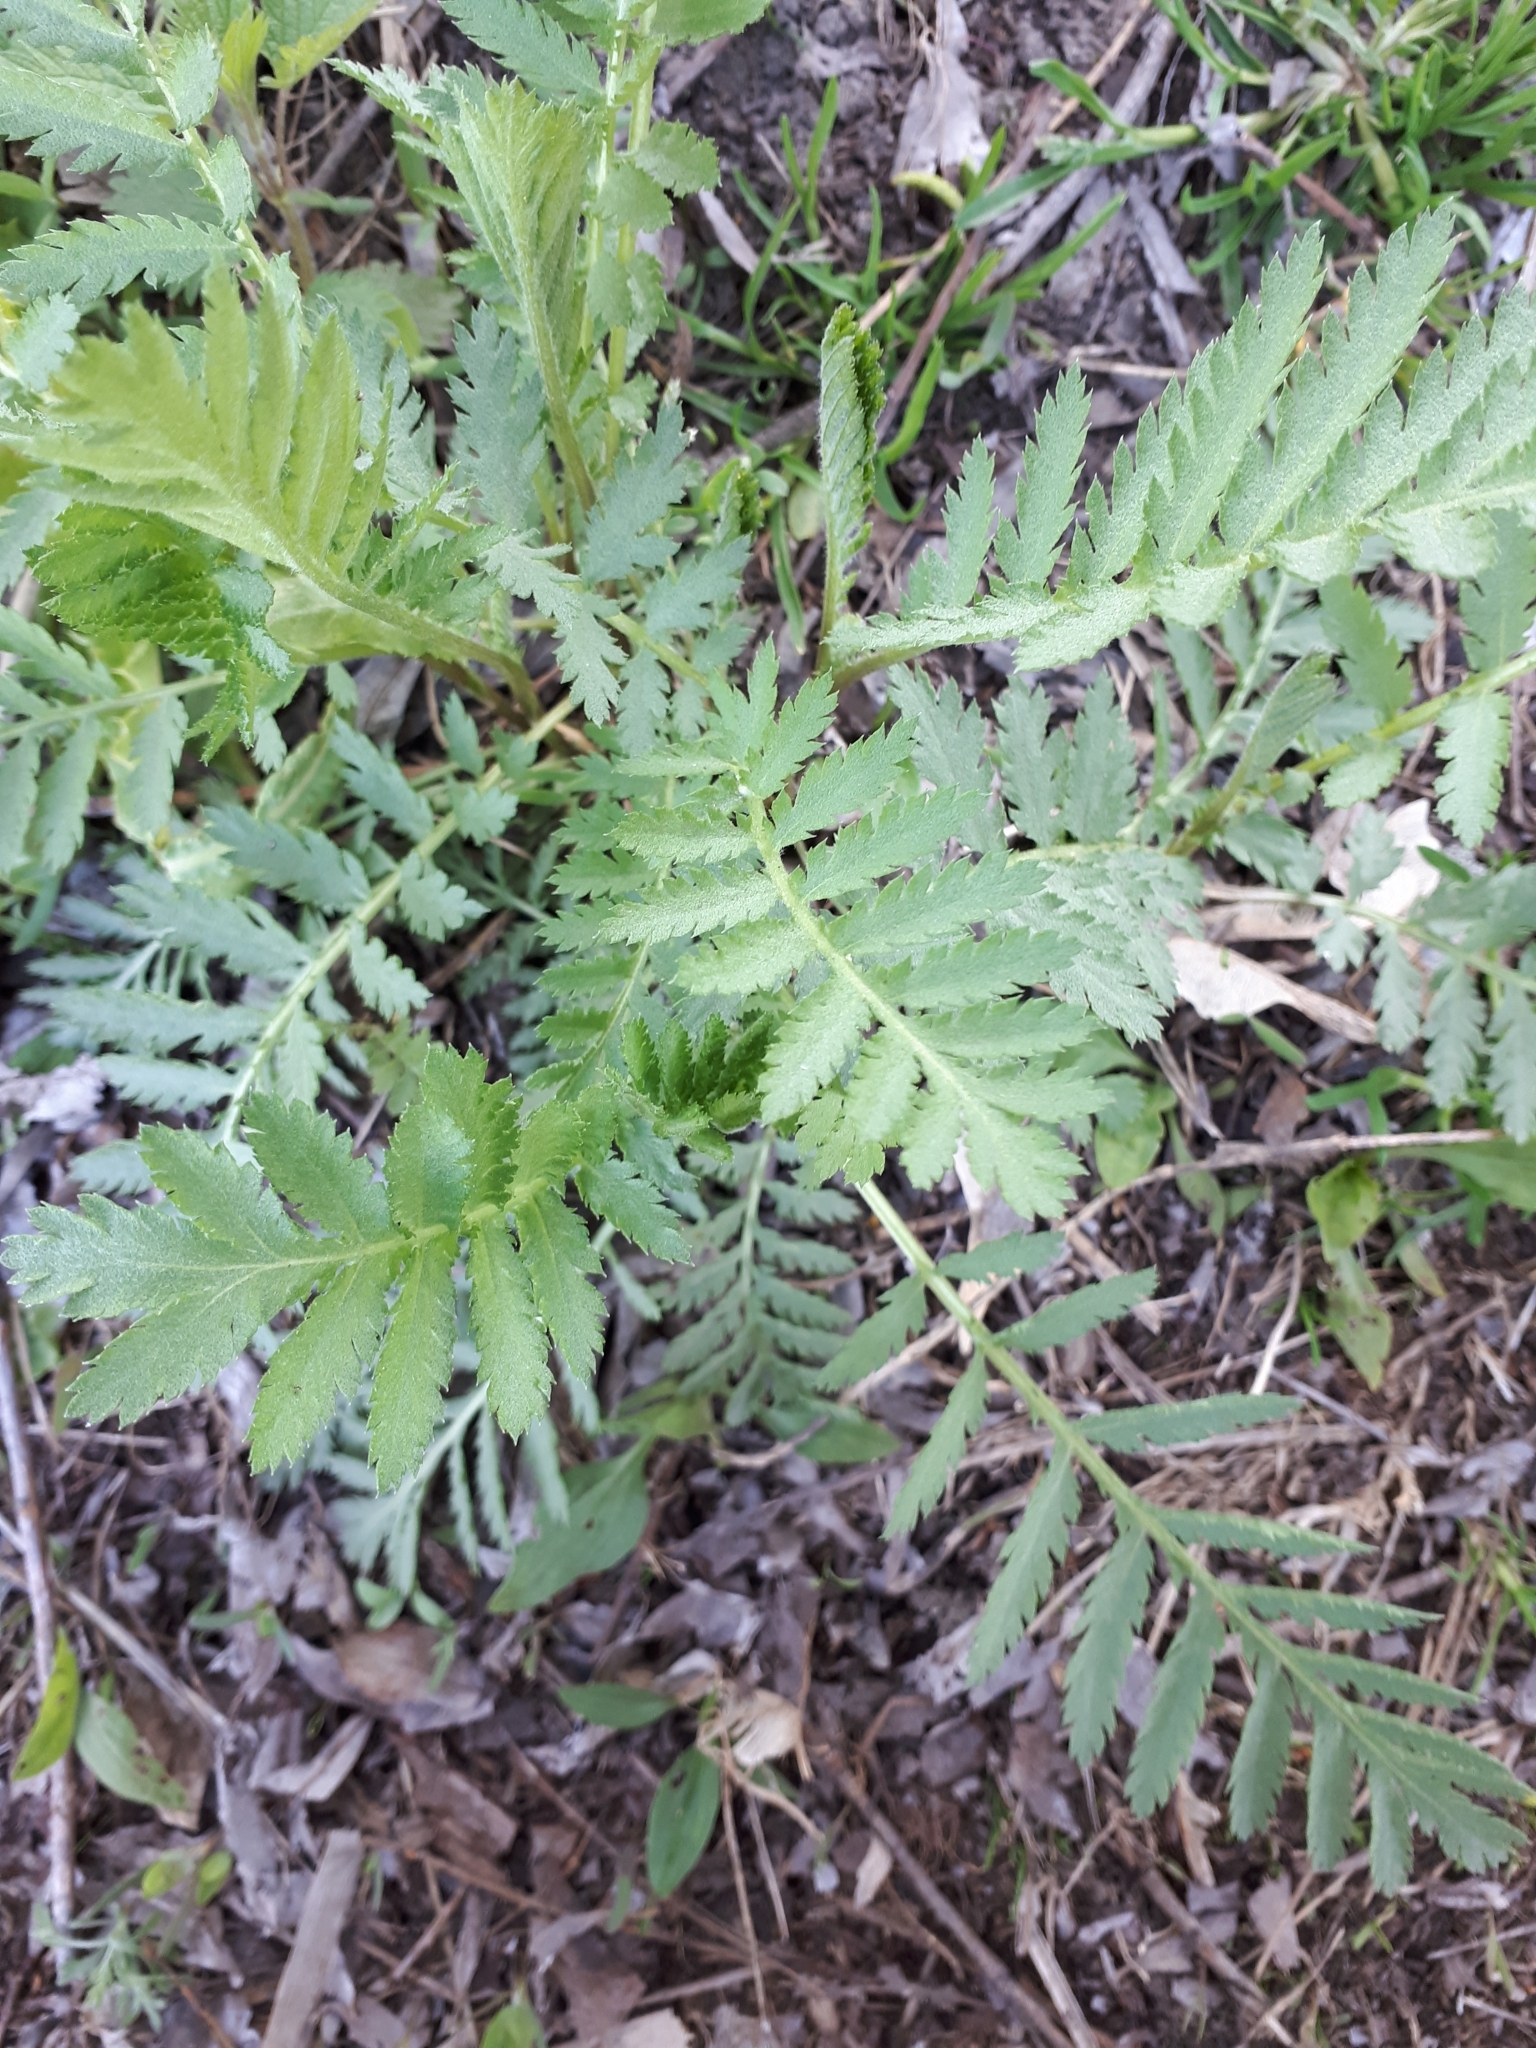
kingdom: Plantae
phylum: Tracheophyta
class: Magnoliopsida
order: Asterales
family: Asteraceae
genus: Tanacetum
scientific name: Tanacetum vulgare
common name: Common tansy
